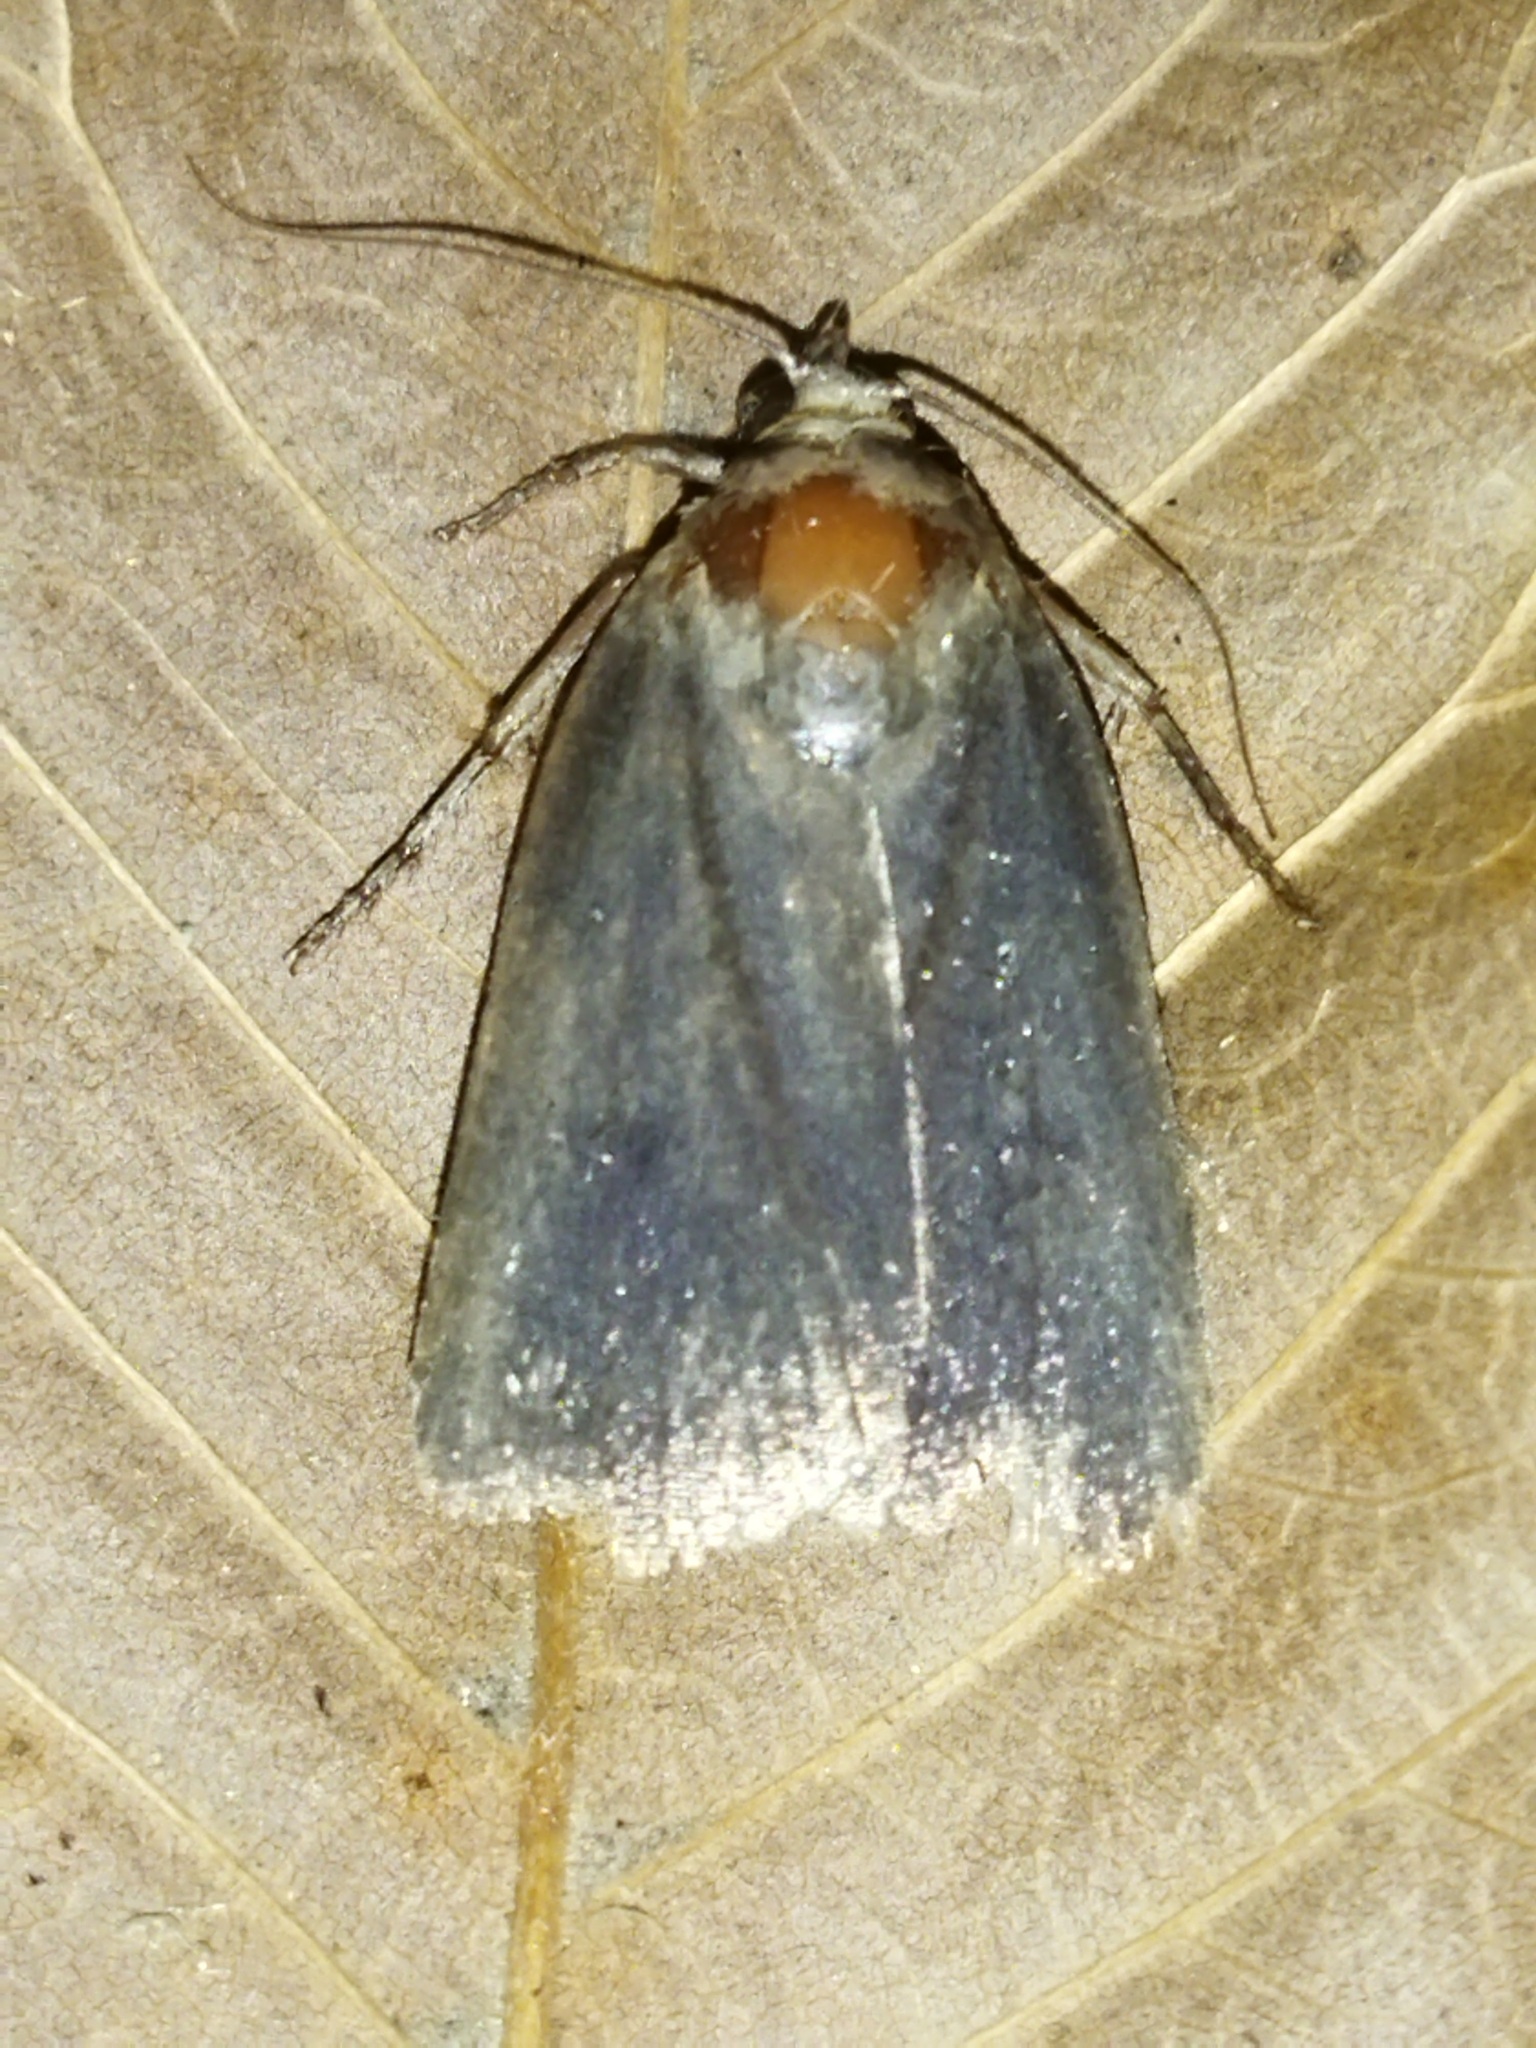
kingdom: Animalia
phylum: Arthropoda
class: Insecta
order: Lepidoptera
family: Noctuidae
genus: Amphipyra
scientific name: Amphipyra livida
